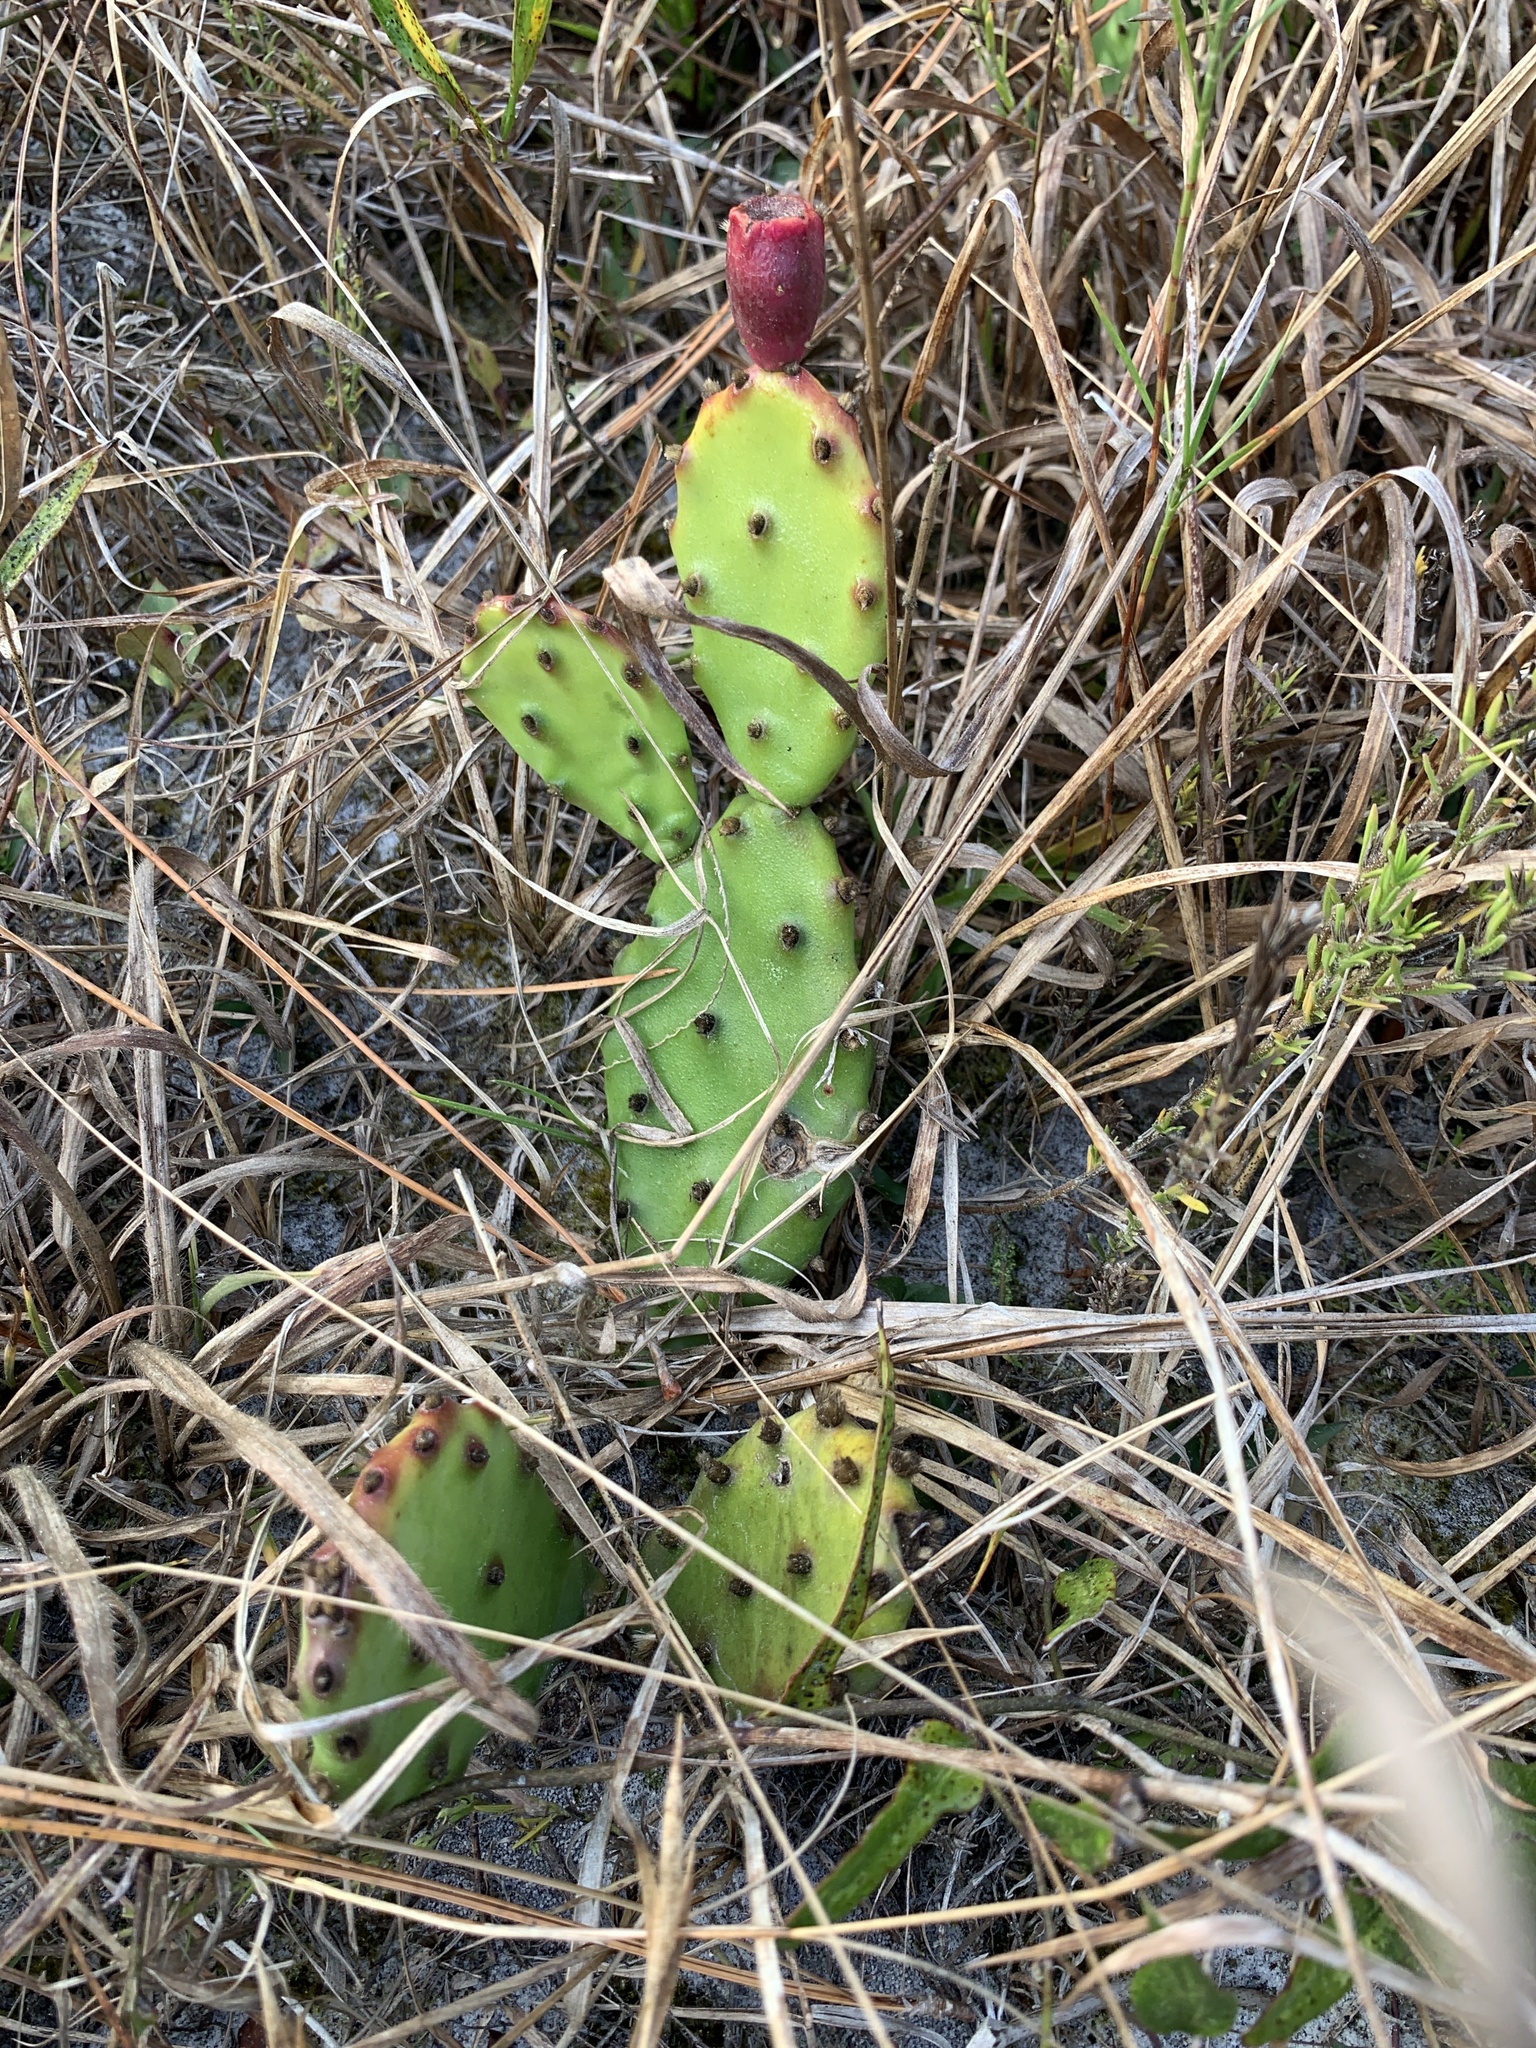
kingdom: Plantae
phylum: Tracheophyta
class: Magnoliopsida
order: Caryophyllales
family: Cactaceae
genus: Opuntia
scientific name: Opuntia austrina
